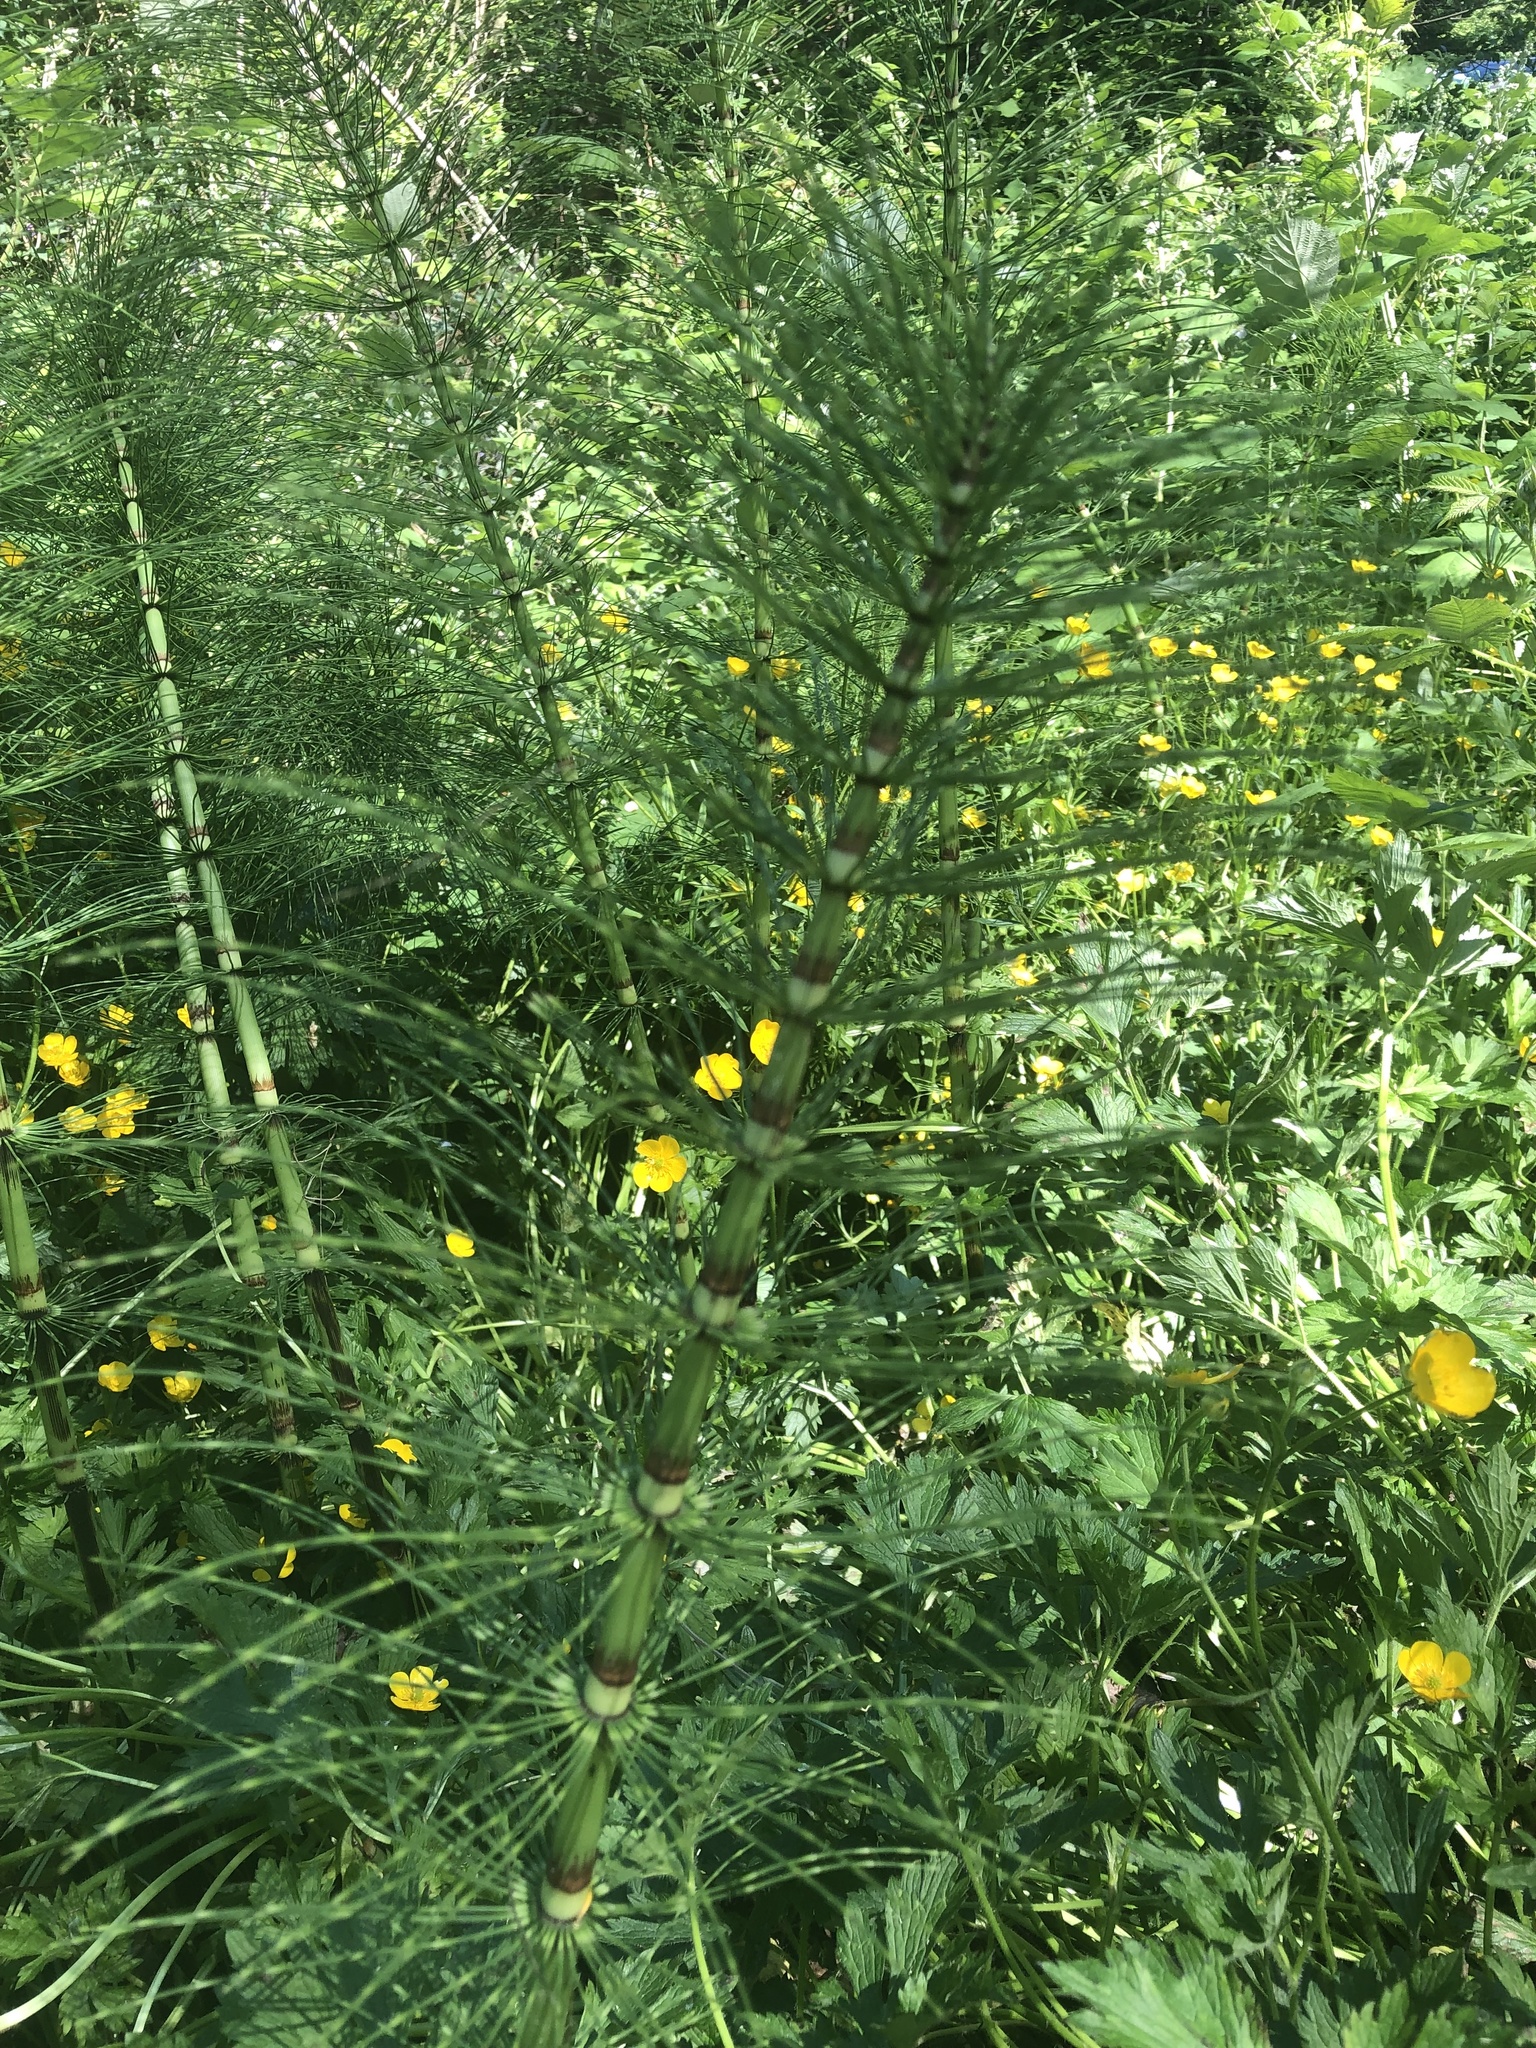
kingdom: Plantae
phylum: Tracheophyta
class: Polypodiopsida
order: Equisetales
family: Equisetaceae
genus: Equisetum
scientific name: Equisetum telmateia
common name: Great horsetail
